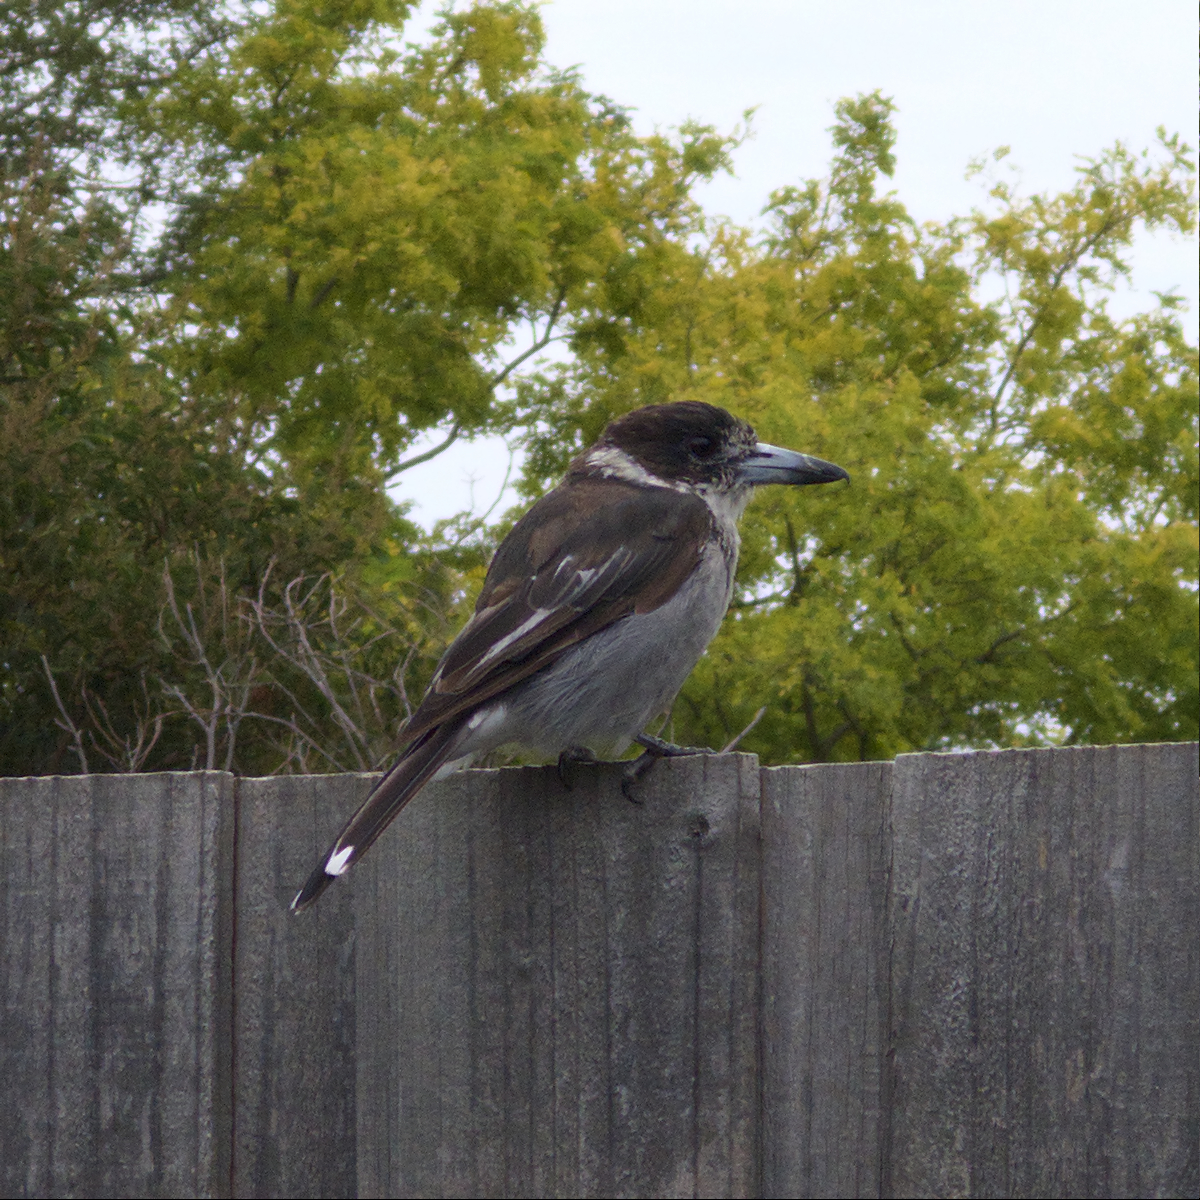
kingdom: Animalia
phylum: Chordata
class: Aves
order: Passeriformes
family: Cracticidae
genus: Cracticus
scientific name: Cracticus torquatus
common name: Grey butcherbird
